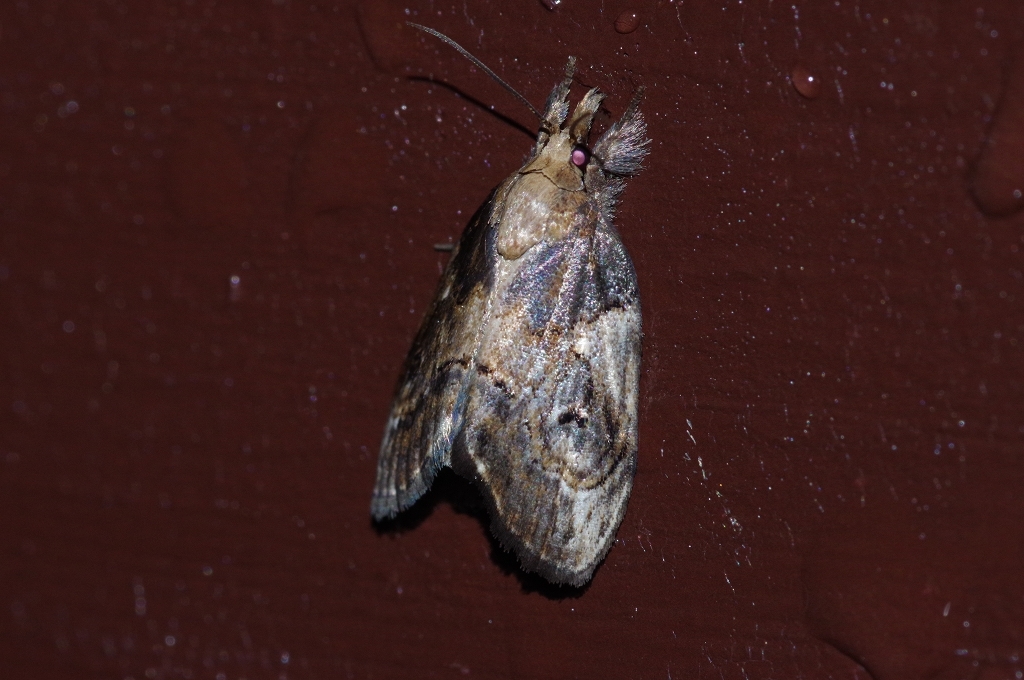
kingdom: Animalia
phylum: Arthropoda
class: Insecta
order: Lepidoptera
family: Nolidae
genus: Selepa
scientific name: Selepa molybdea
